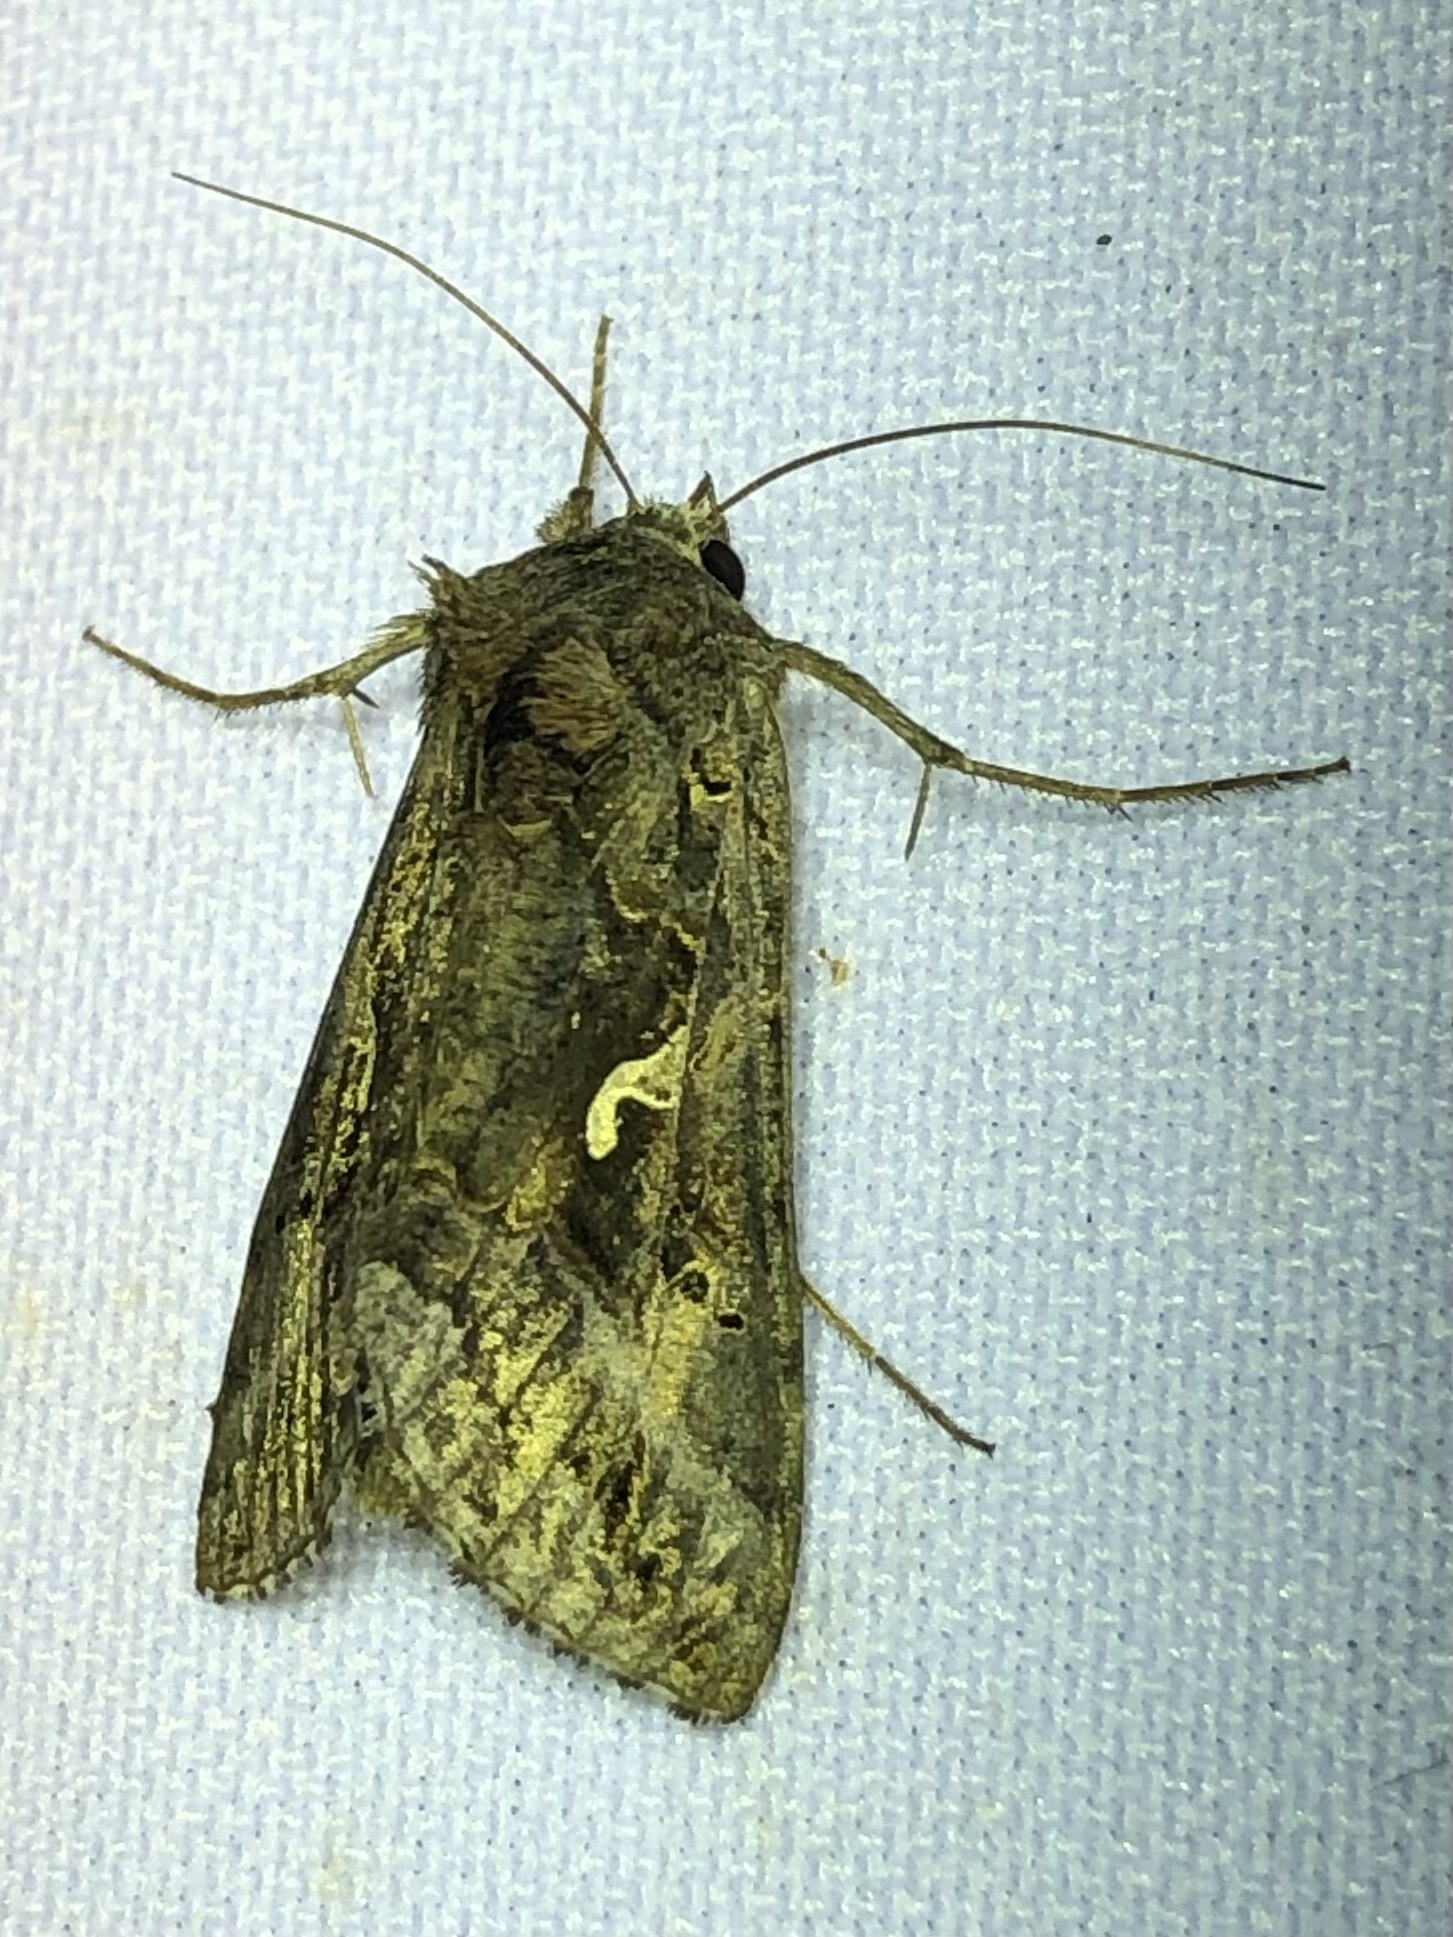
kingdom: Animalia
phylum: Arthropoda
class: Insecta
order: Lepidoptera
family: Noctuidae
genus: Autographa
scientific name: Autographa gamma
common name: Silver y
